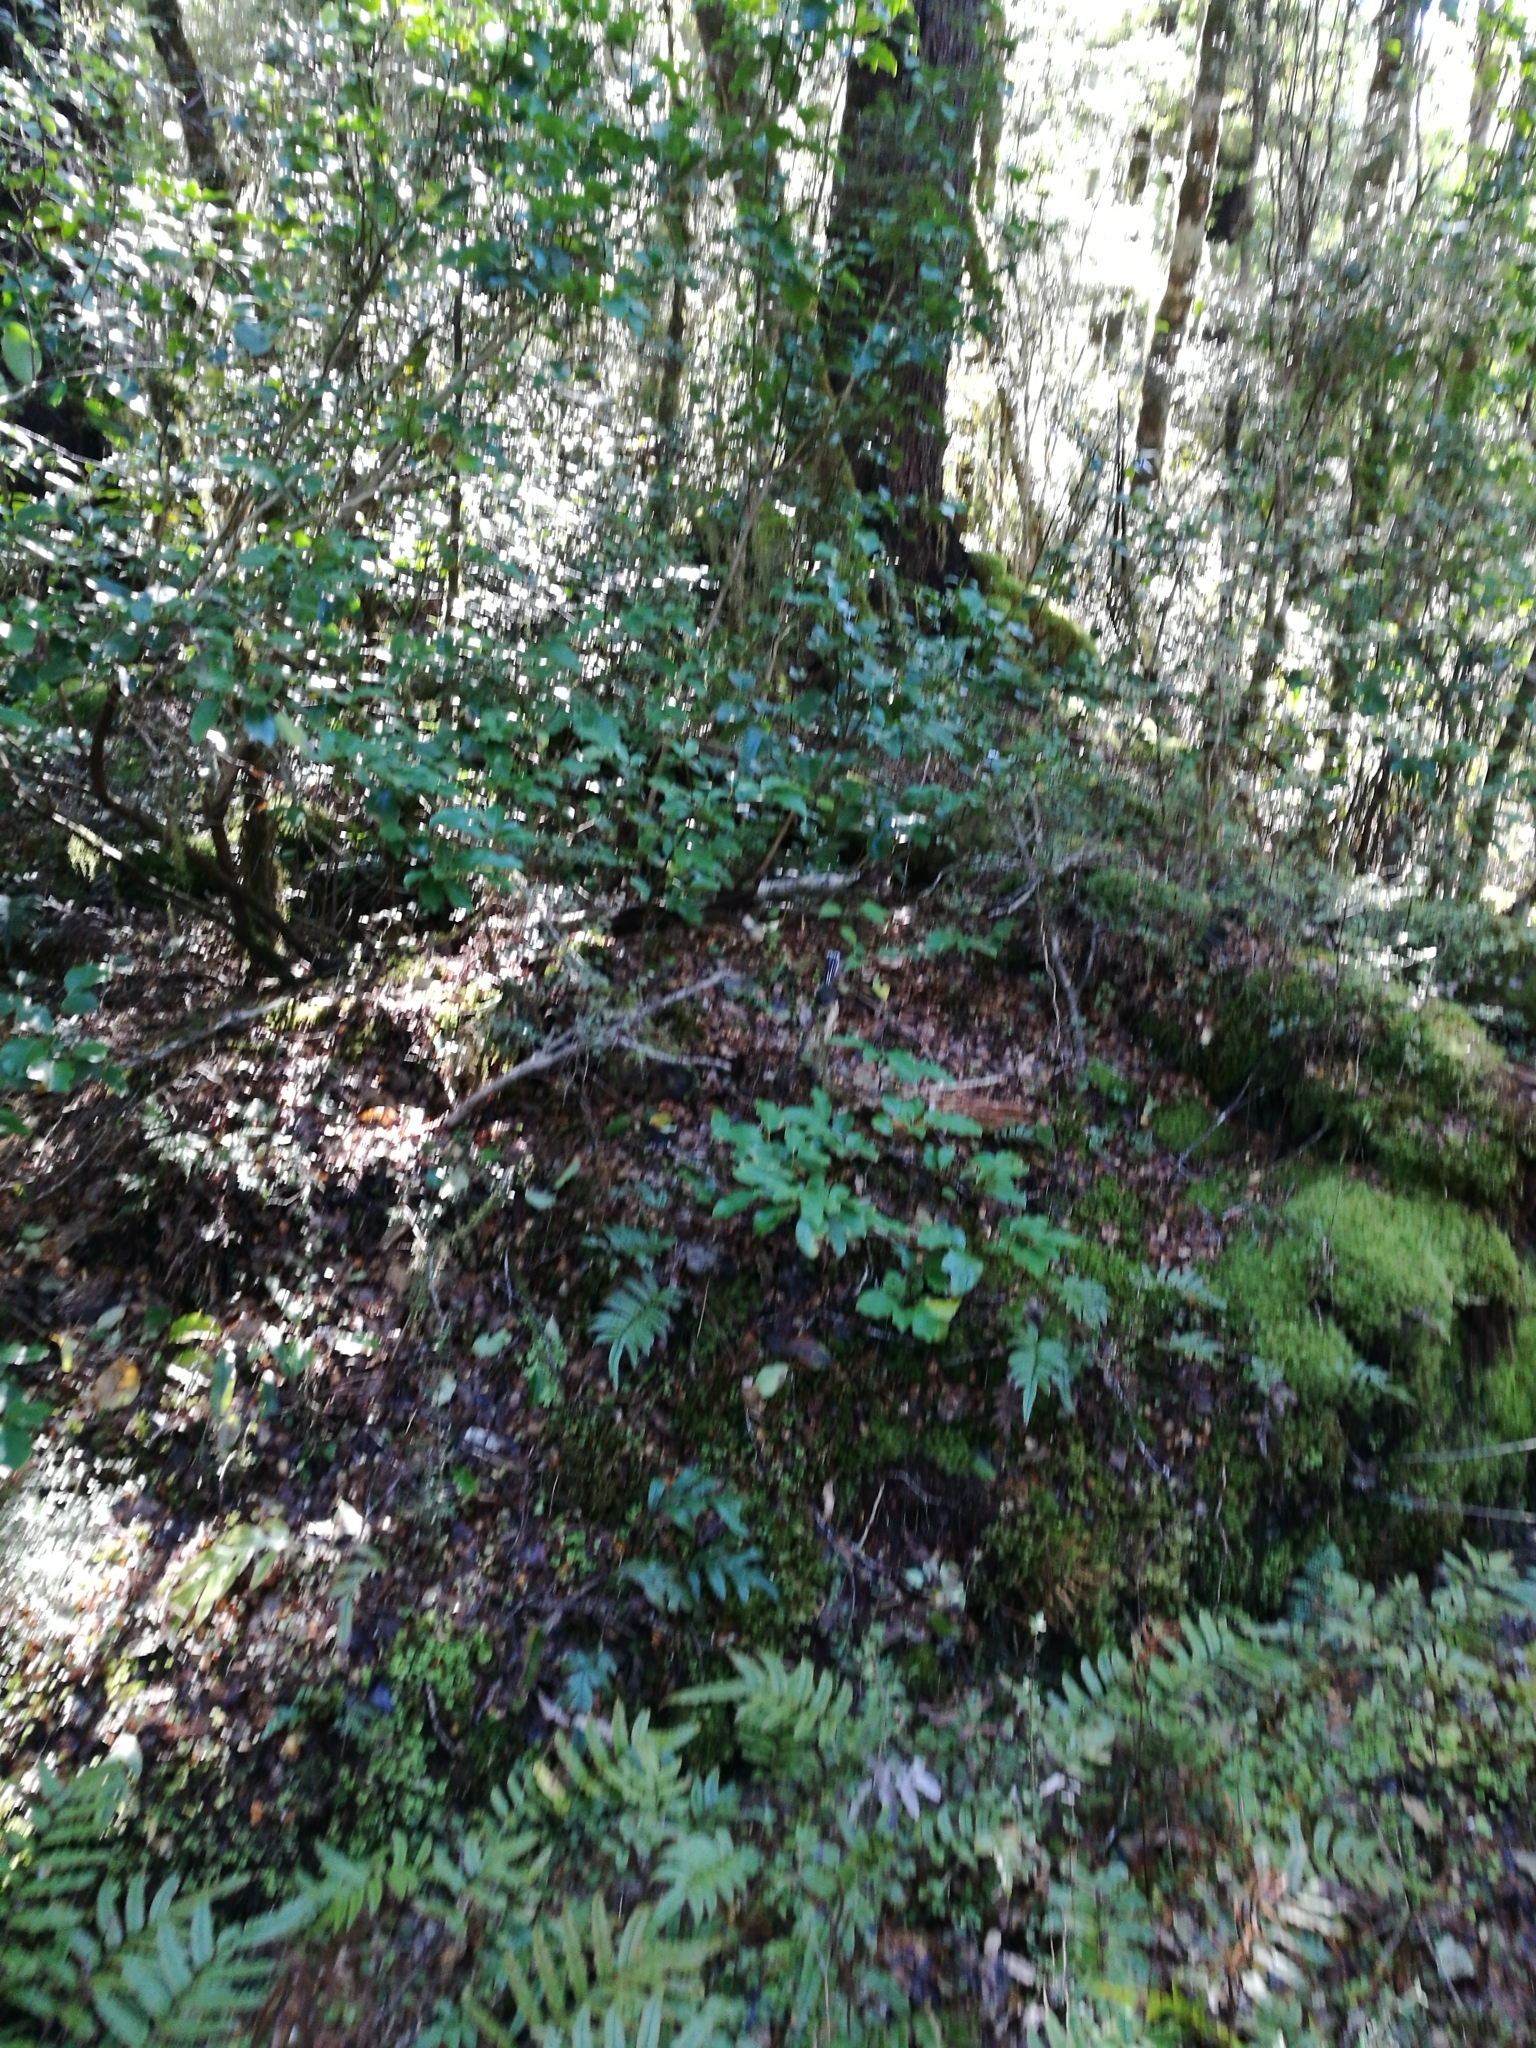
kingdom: Plantae
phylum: Tracheophyta
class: Magnoliopsida
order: Apiales
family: Griseliniaceae
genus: Griselinia
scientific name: Griselinia littoralis
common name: New zealand broadleaf
